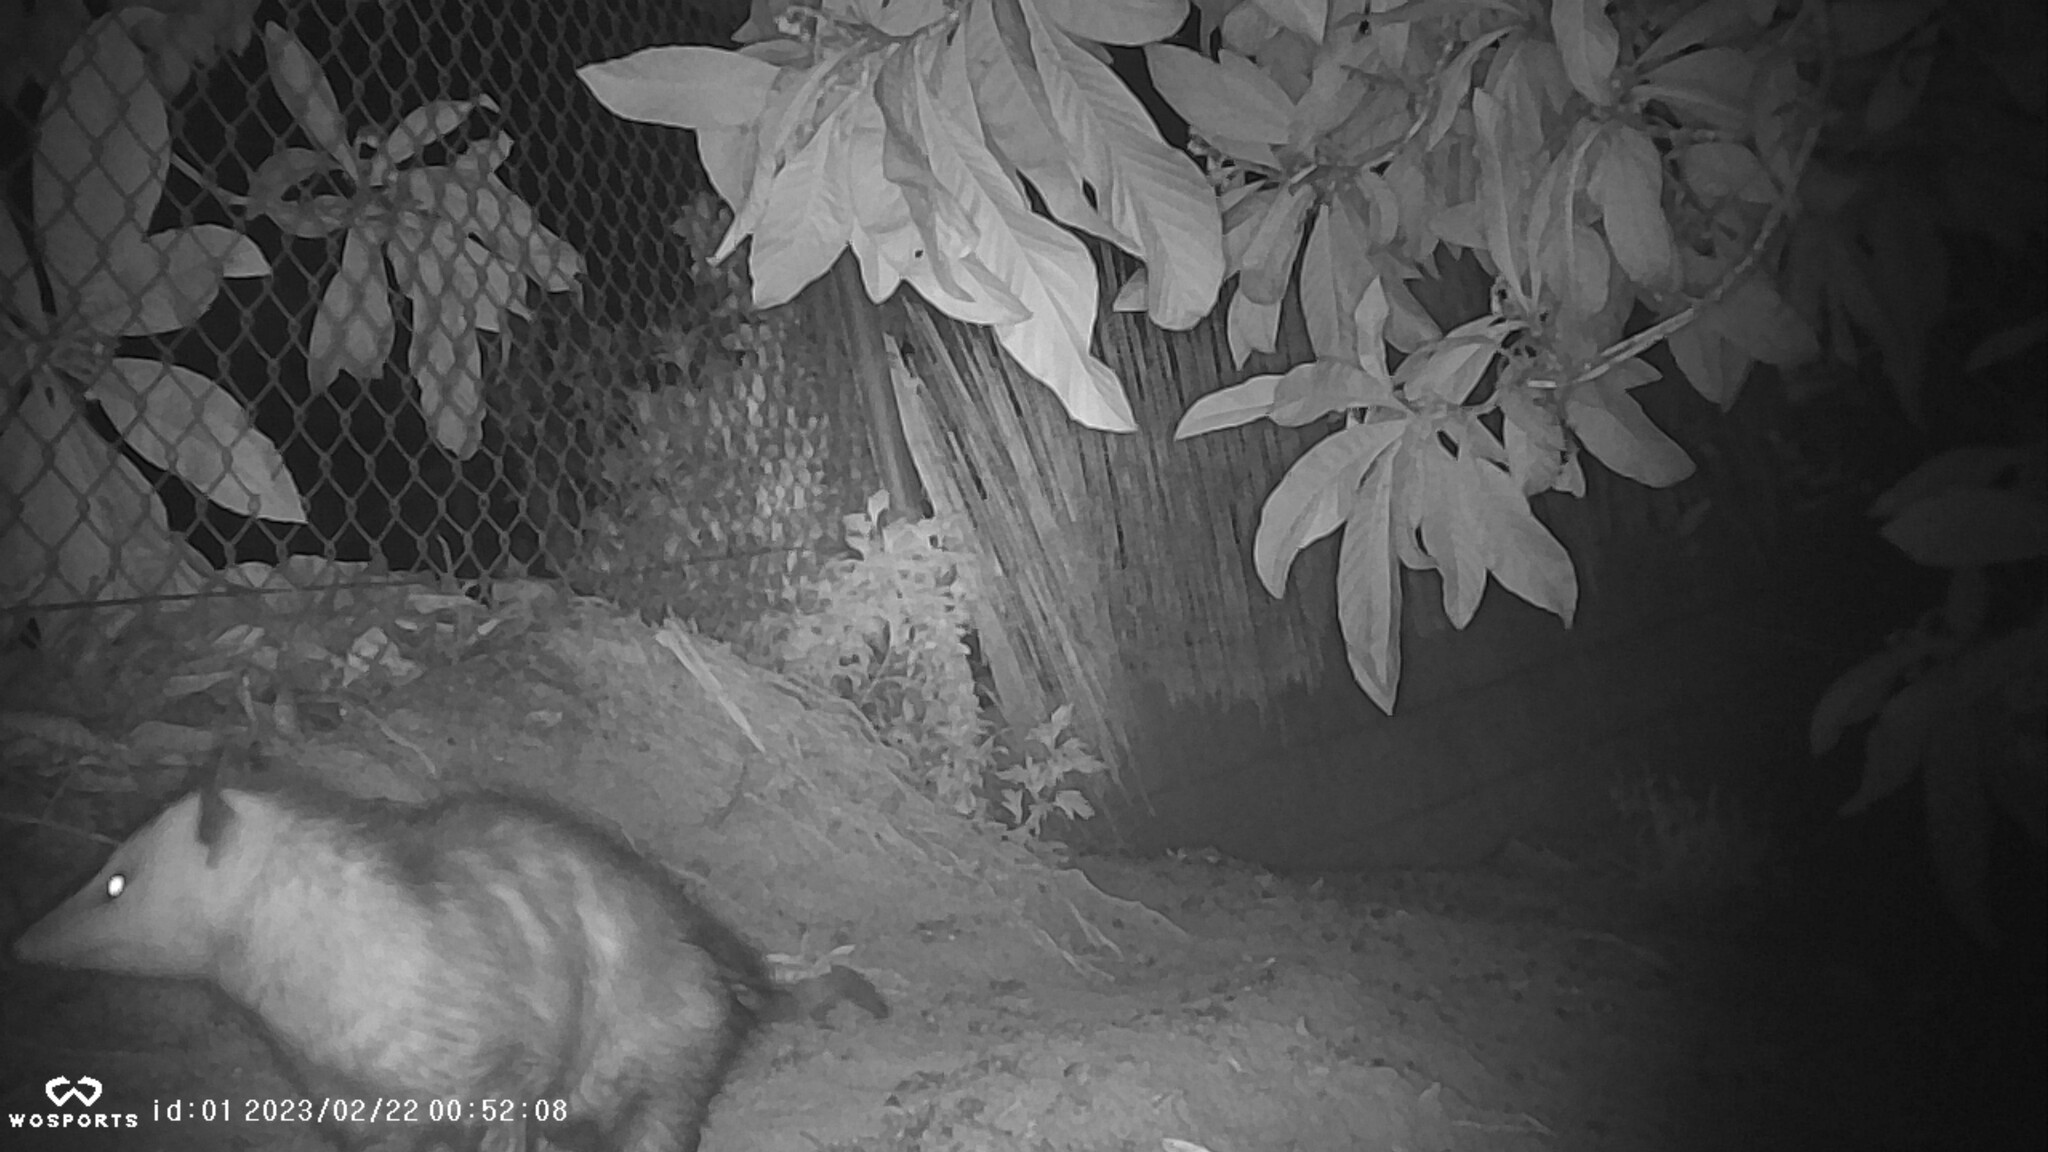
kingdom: Animalia
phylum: Chordata
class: Mammalia
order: Didelphimorphia
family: Didelphidae
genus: Didelphis
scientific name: Didelphis virginiana
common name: Virginia opossum
